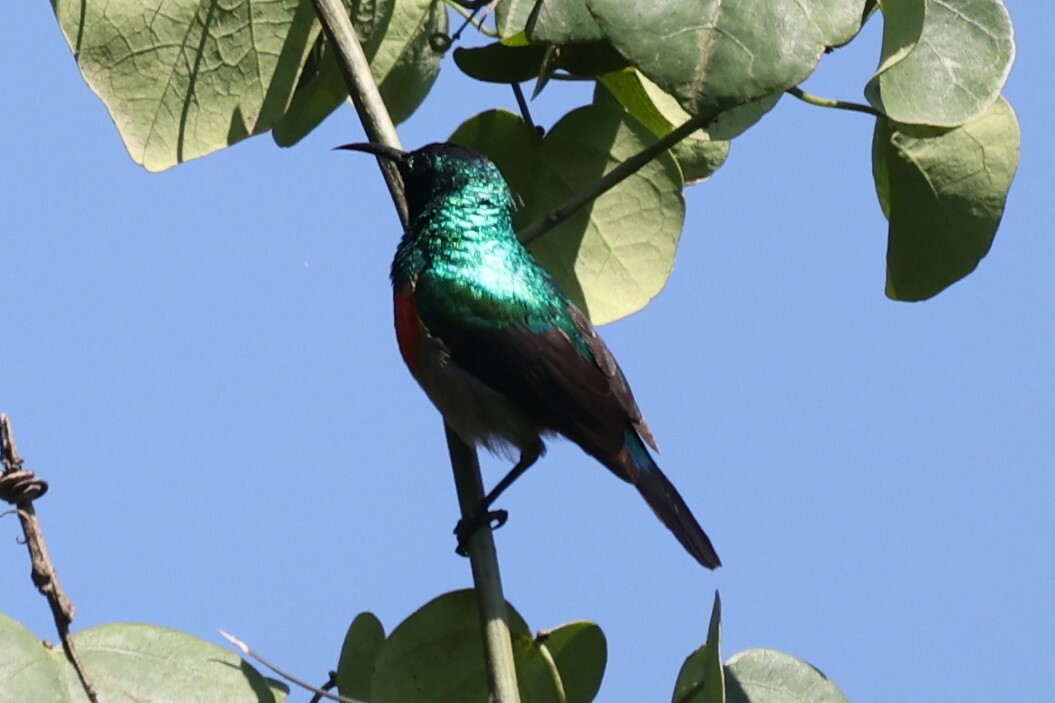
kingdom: Animalia
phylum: Chordata
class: Aves
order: Passeriformes
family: Nectariniidae
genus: Cinnyris
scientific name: Cinnyris chloropygius
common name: Olive-bellied sunbird
